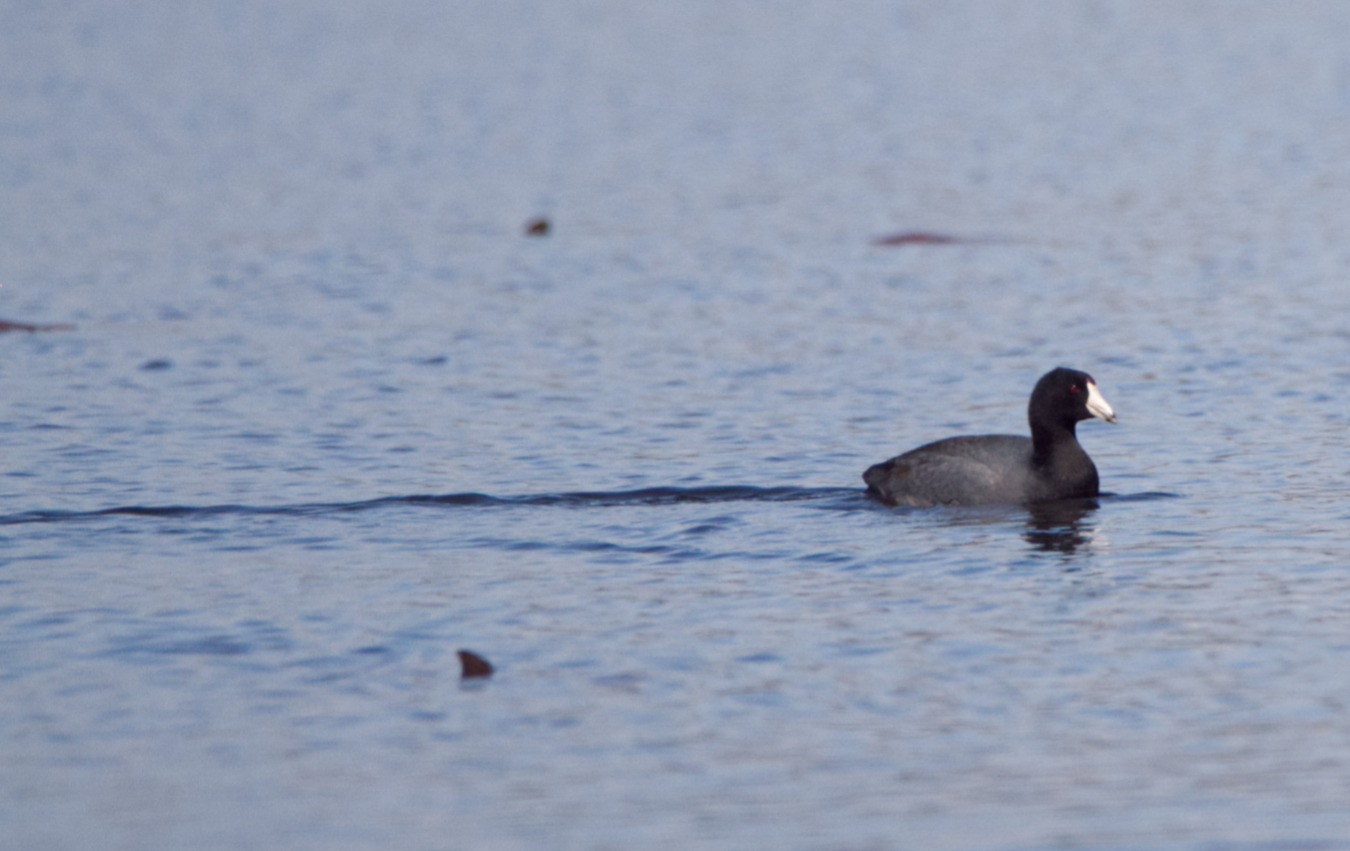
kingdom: Animalia
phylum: Chordata
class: Aves
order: Gruiformes
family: Rallidae
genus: Fulica
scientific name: Fulica americana
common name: American coot
